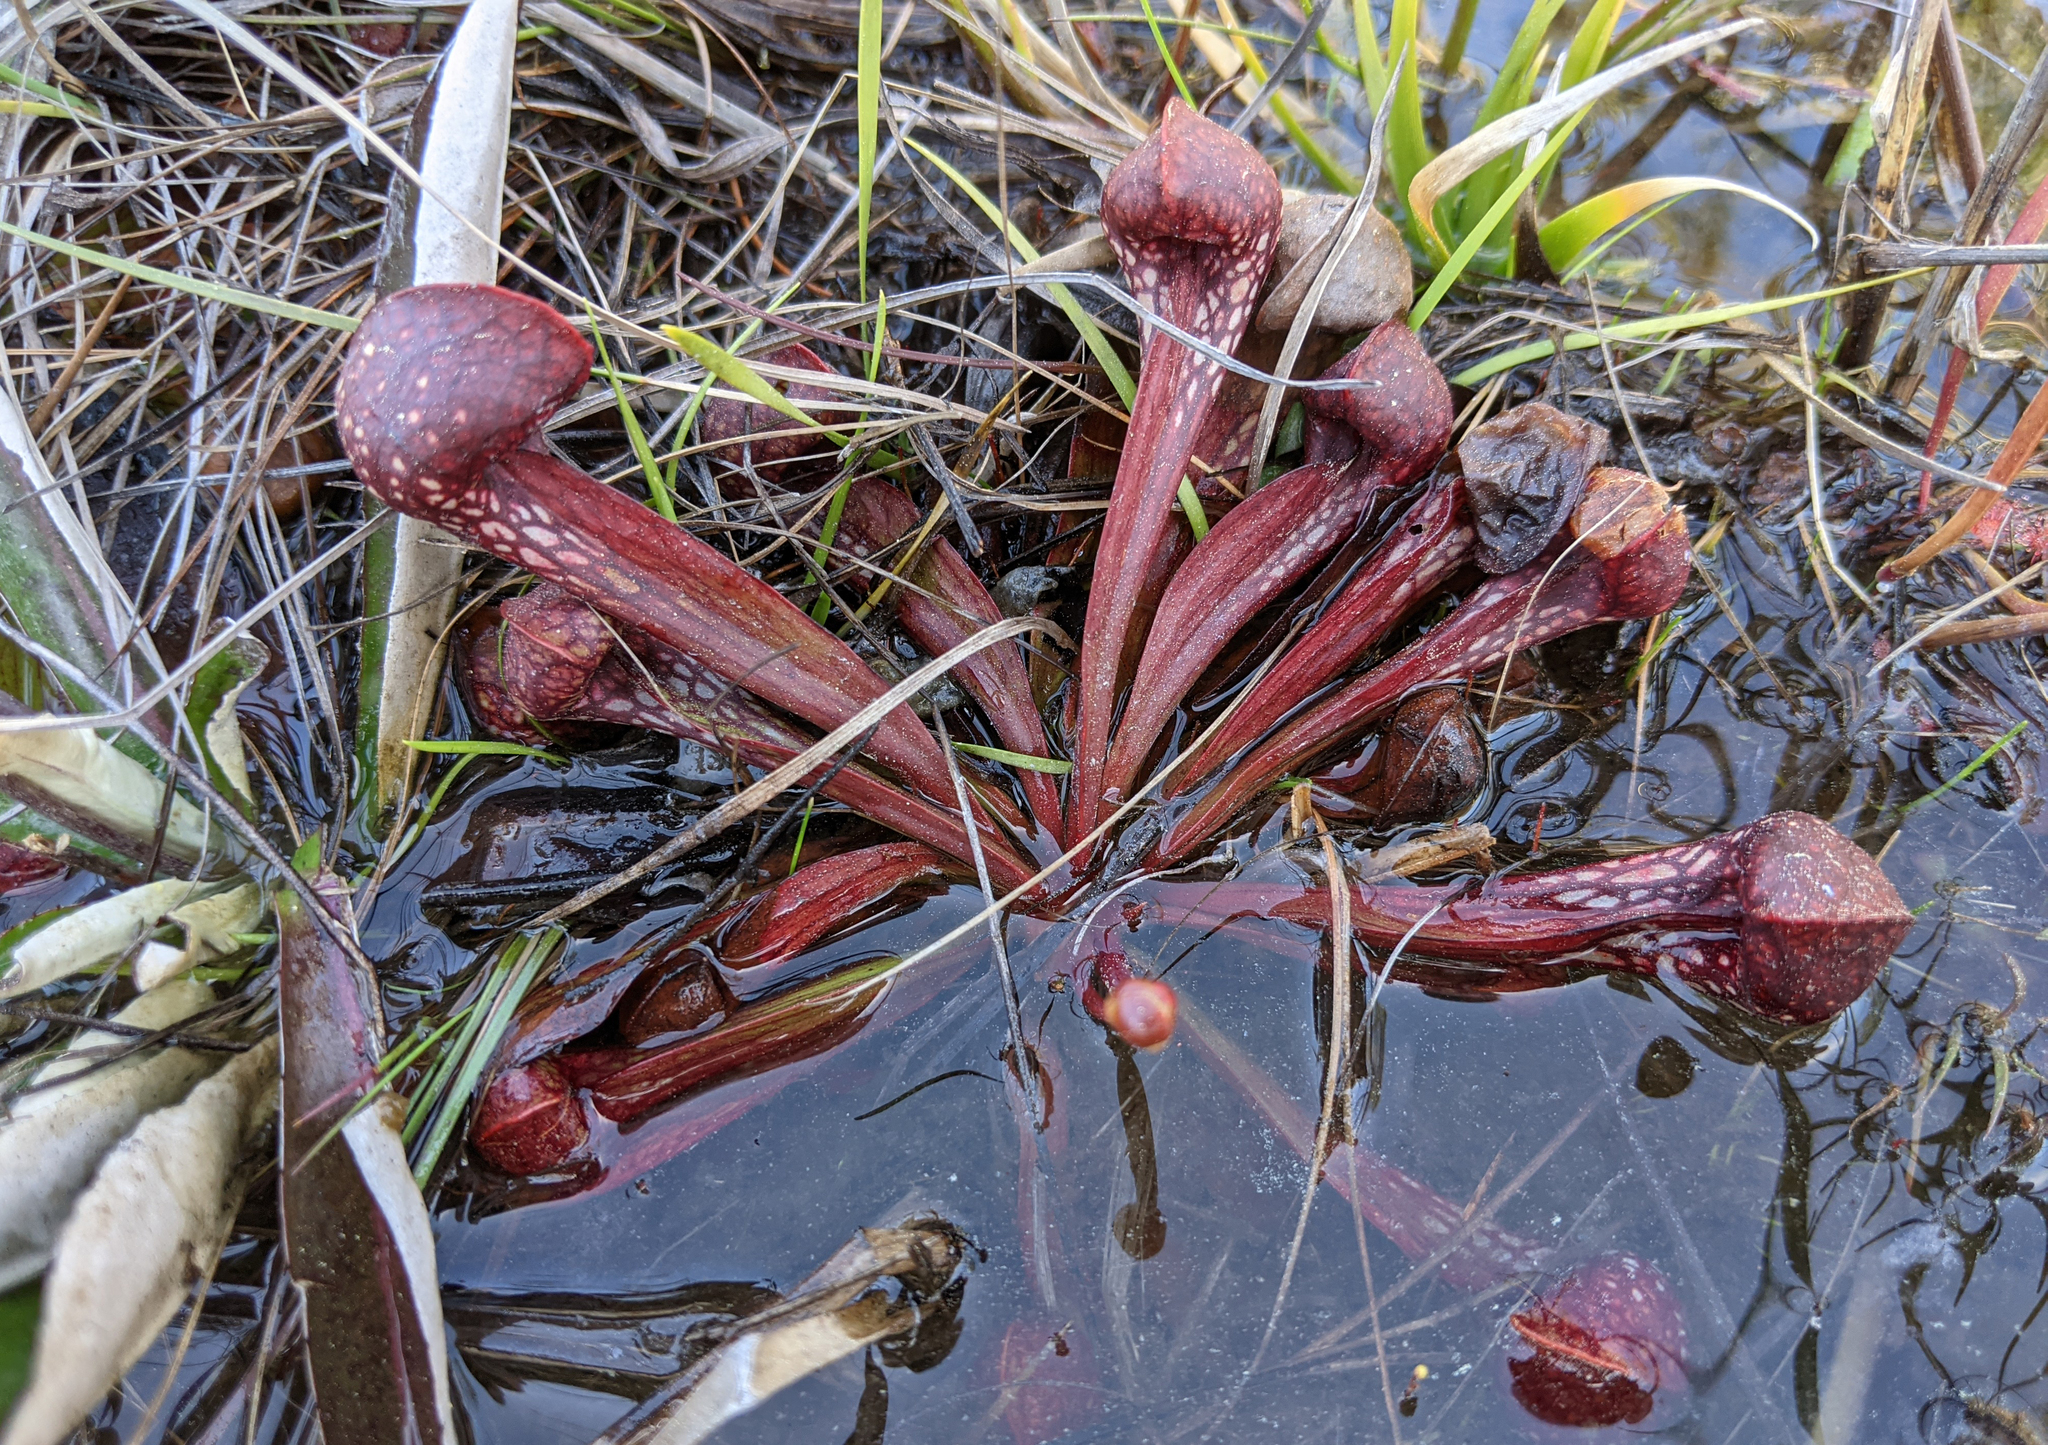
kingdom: Plantae
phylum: Tracheophyta
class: Magnoliopsida
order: Ericales
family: Sarraceniaceae
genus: Sarracenia
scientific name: Sarracenia psittacina
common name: Parrot pitcherplant
